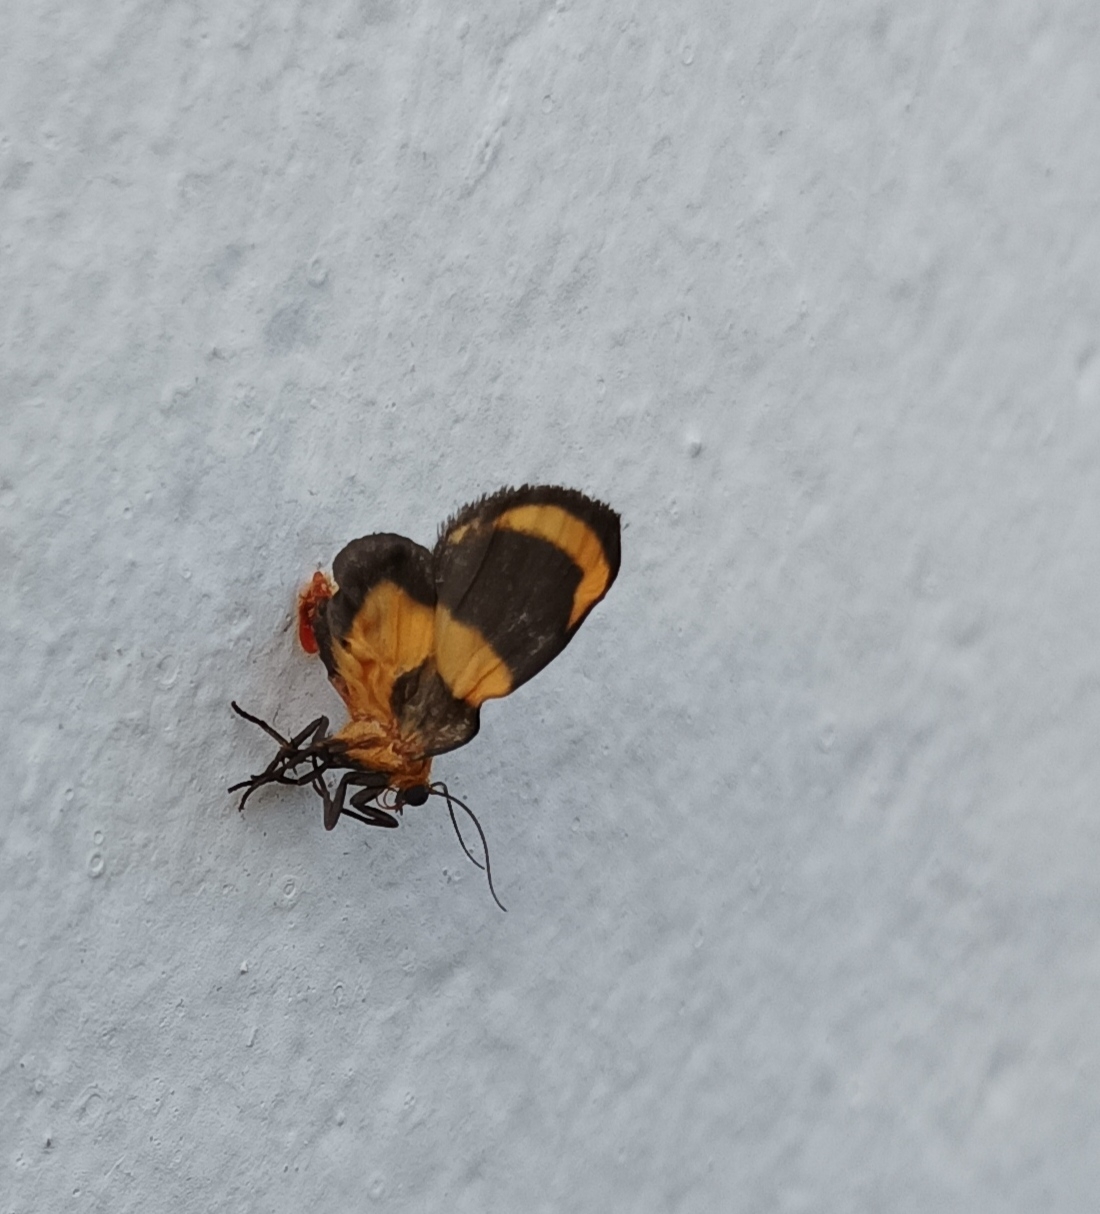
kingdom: Animalia
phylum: Arthropoda
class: Insecta
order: Lepidoptera
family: Erebidae
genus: Eudesmia
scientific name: Eudesmia menea
